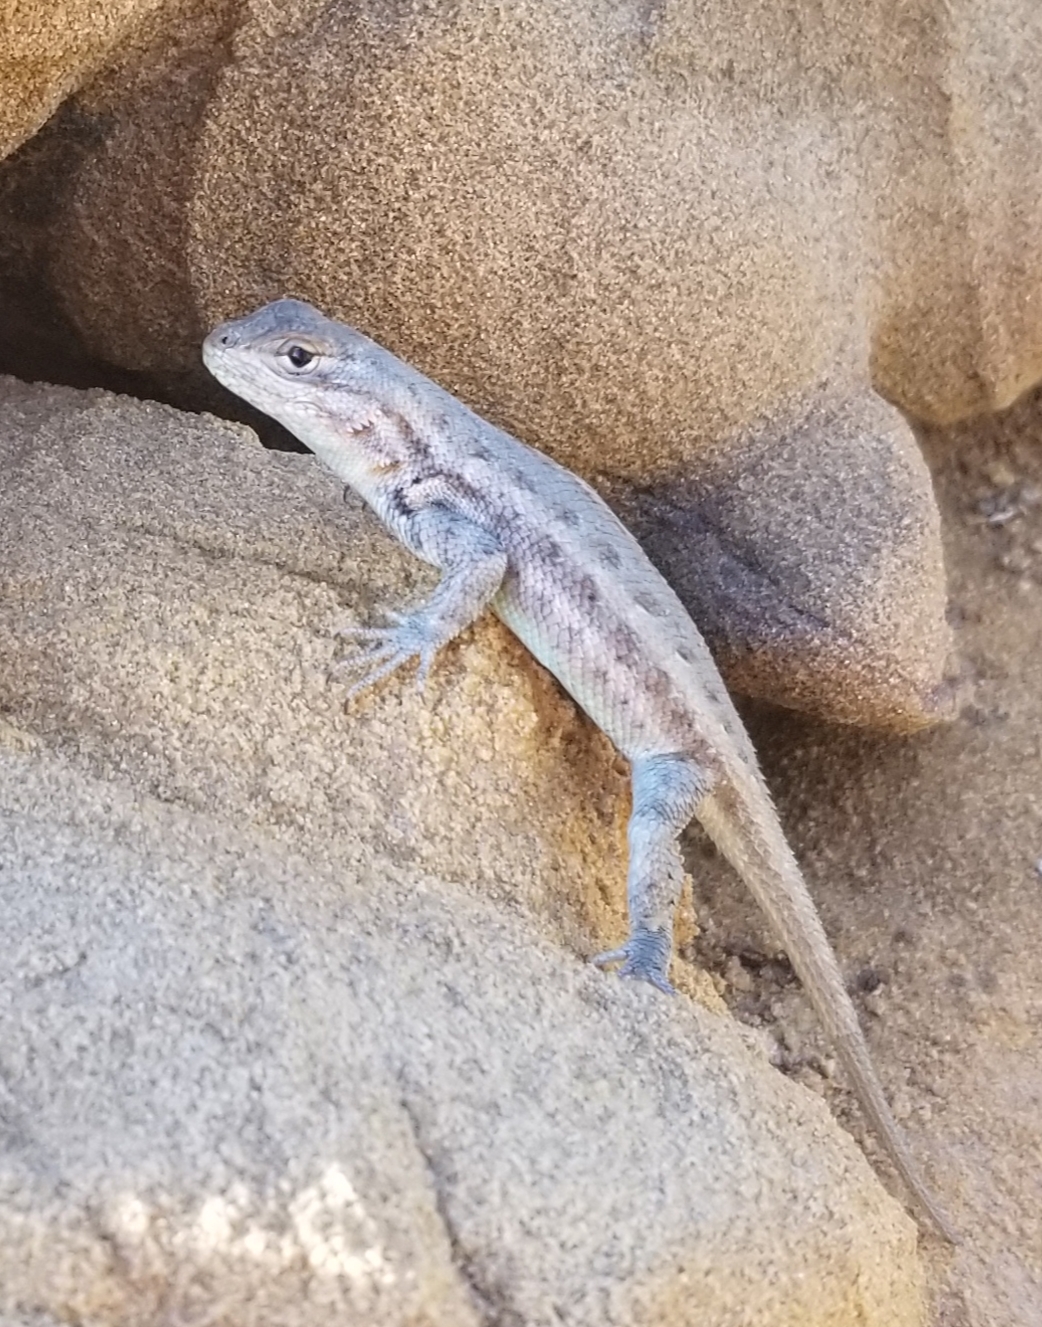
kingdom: Animalia
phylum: Chordata
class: Squamata
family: Phrynosomatidae
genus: Sceloporus
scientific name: Sceloporus graciosus
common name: Sagebrush lizard
